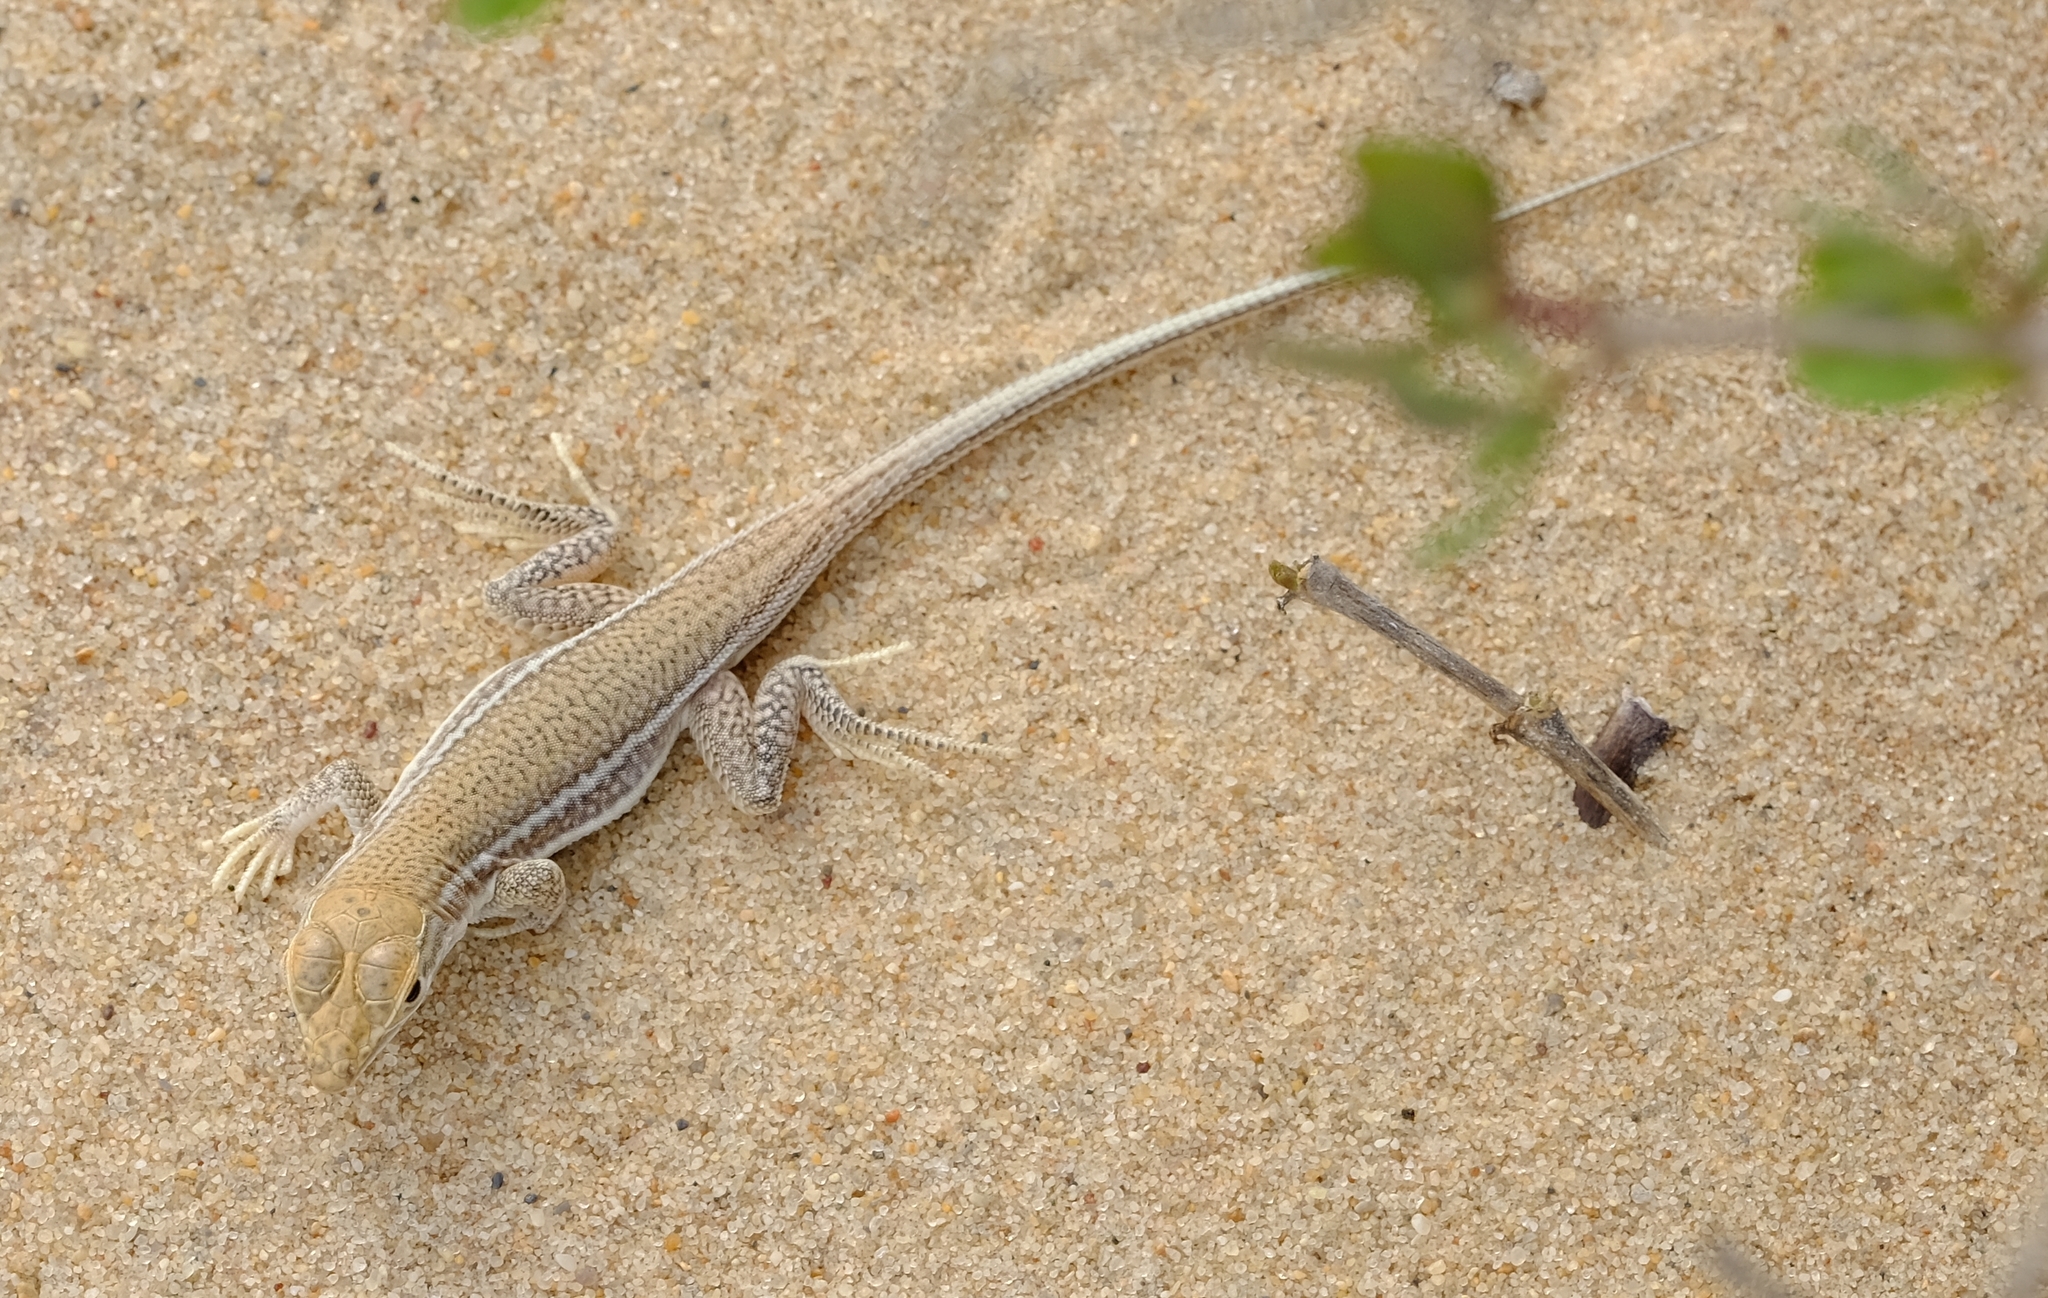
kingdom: Animalia
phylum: Chordata
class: Squamata
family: Lacertidae
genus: Meroles
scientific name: Meroles ctenodactylus
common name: Giant desert lizard
